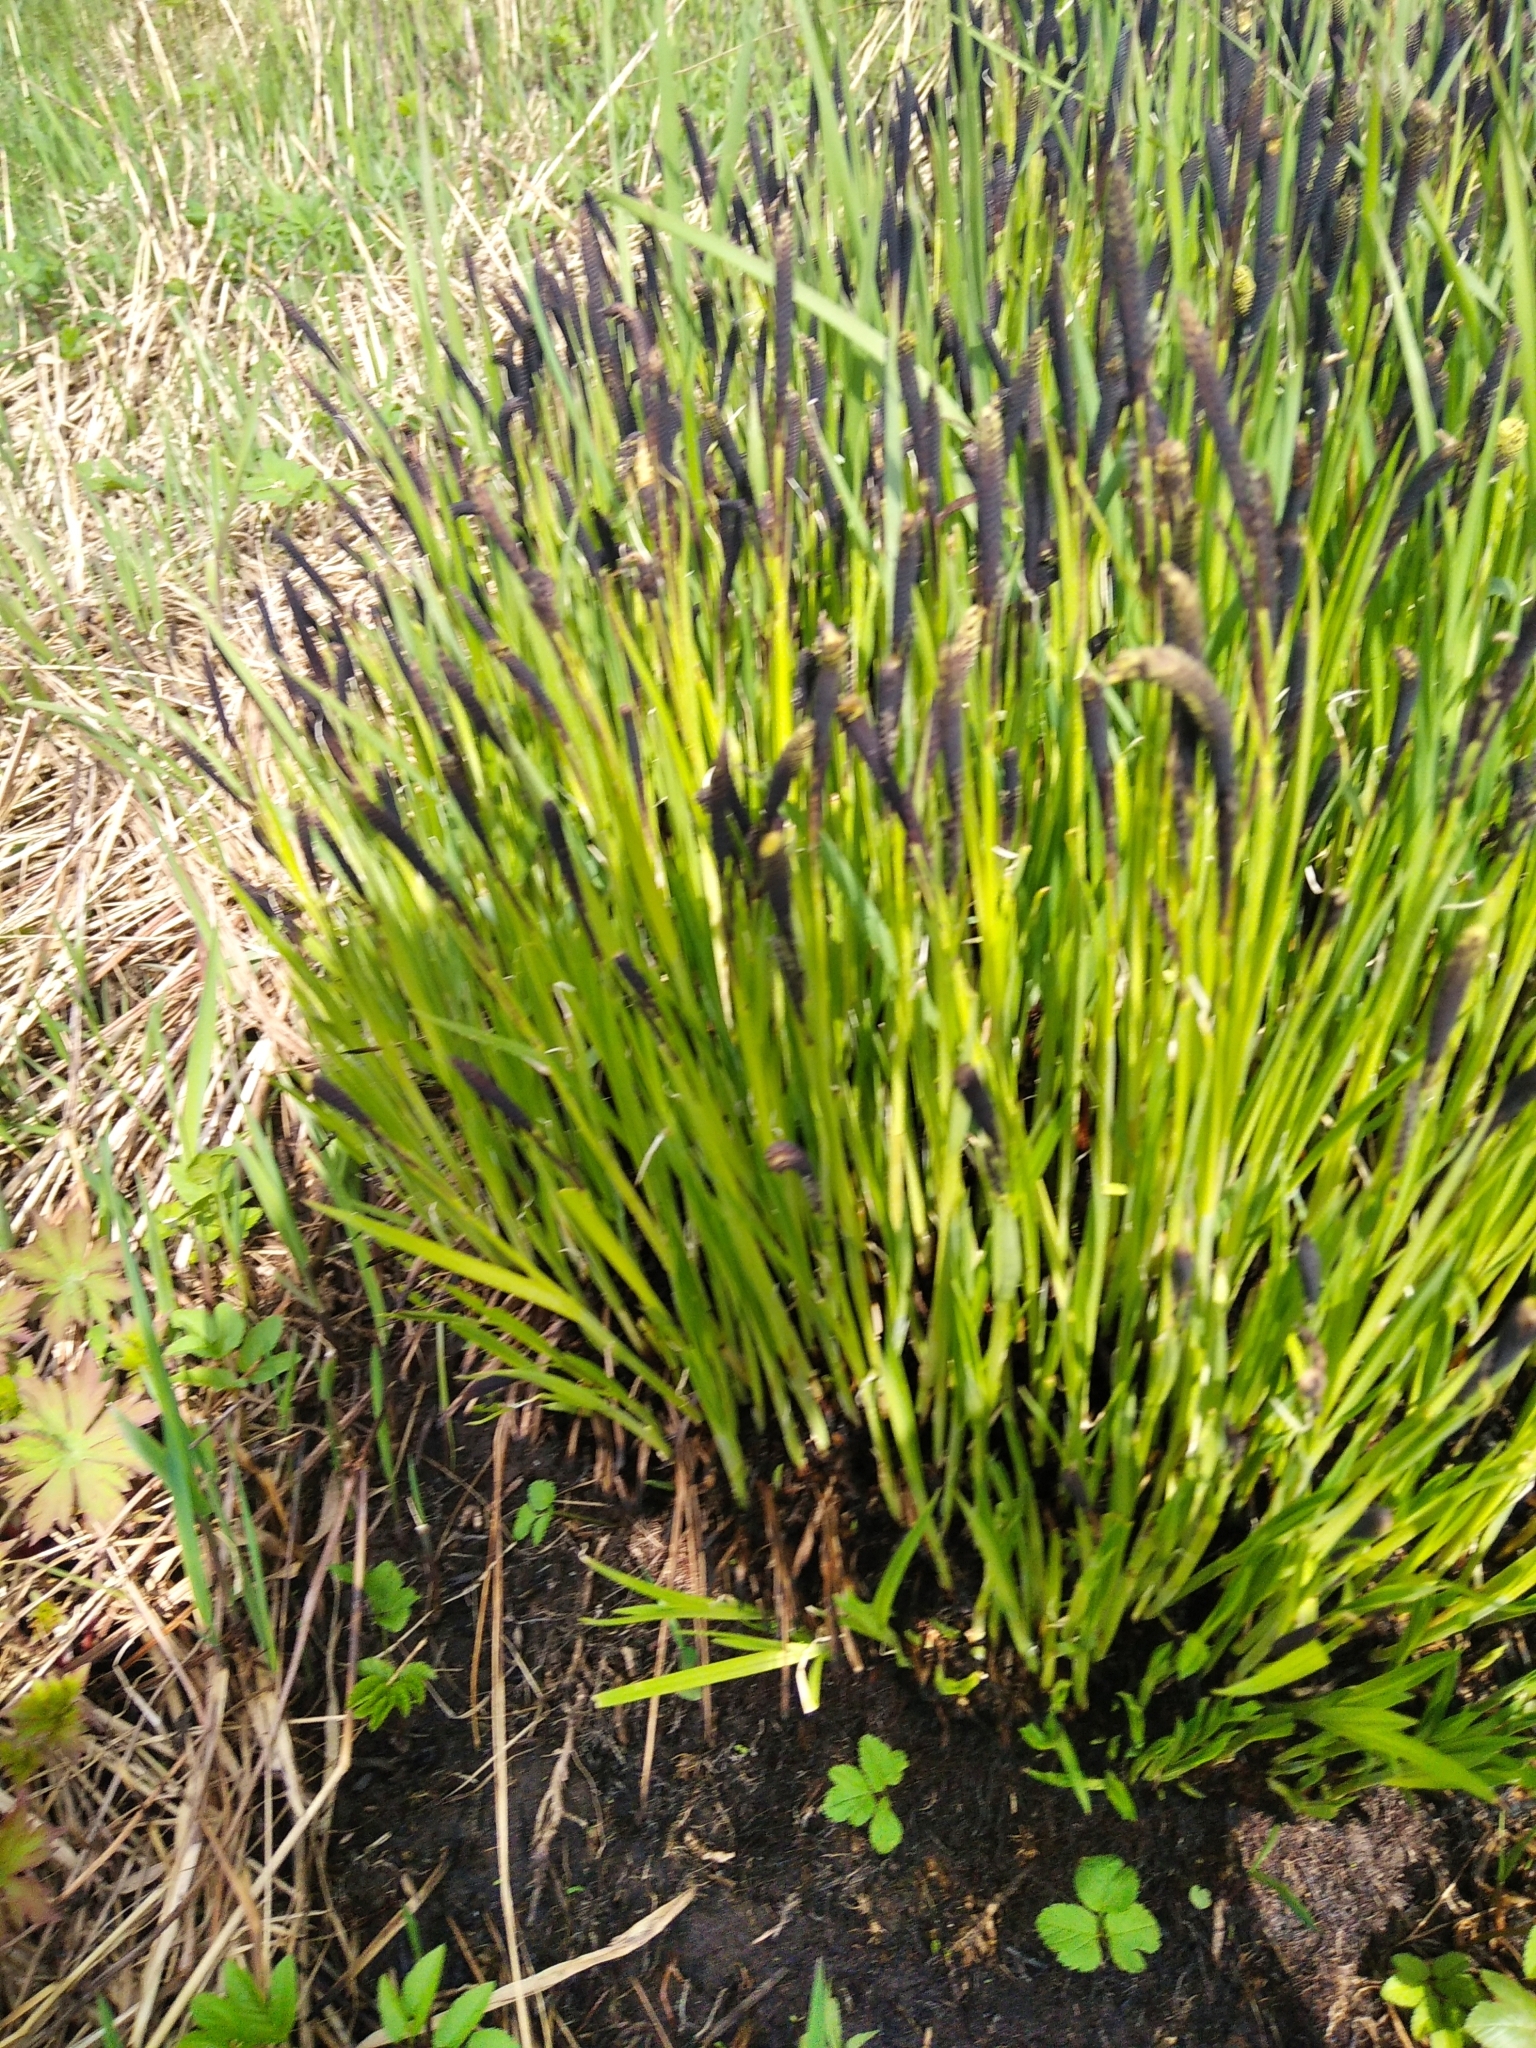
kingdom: Plantae
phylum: Tracheophyta
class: Liliopsida
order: Poales
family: Cyperaceae
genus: Carex
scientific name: Carex cespitosa
